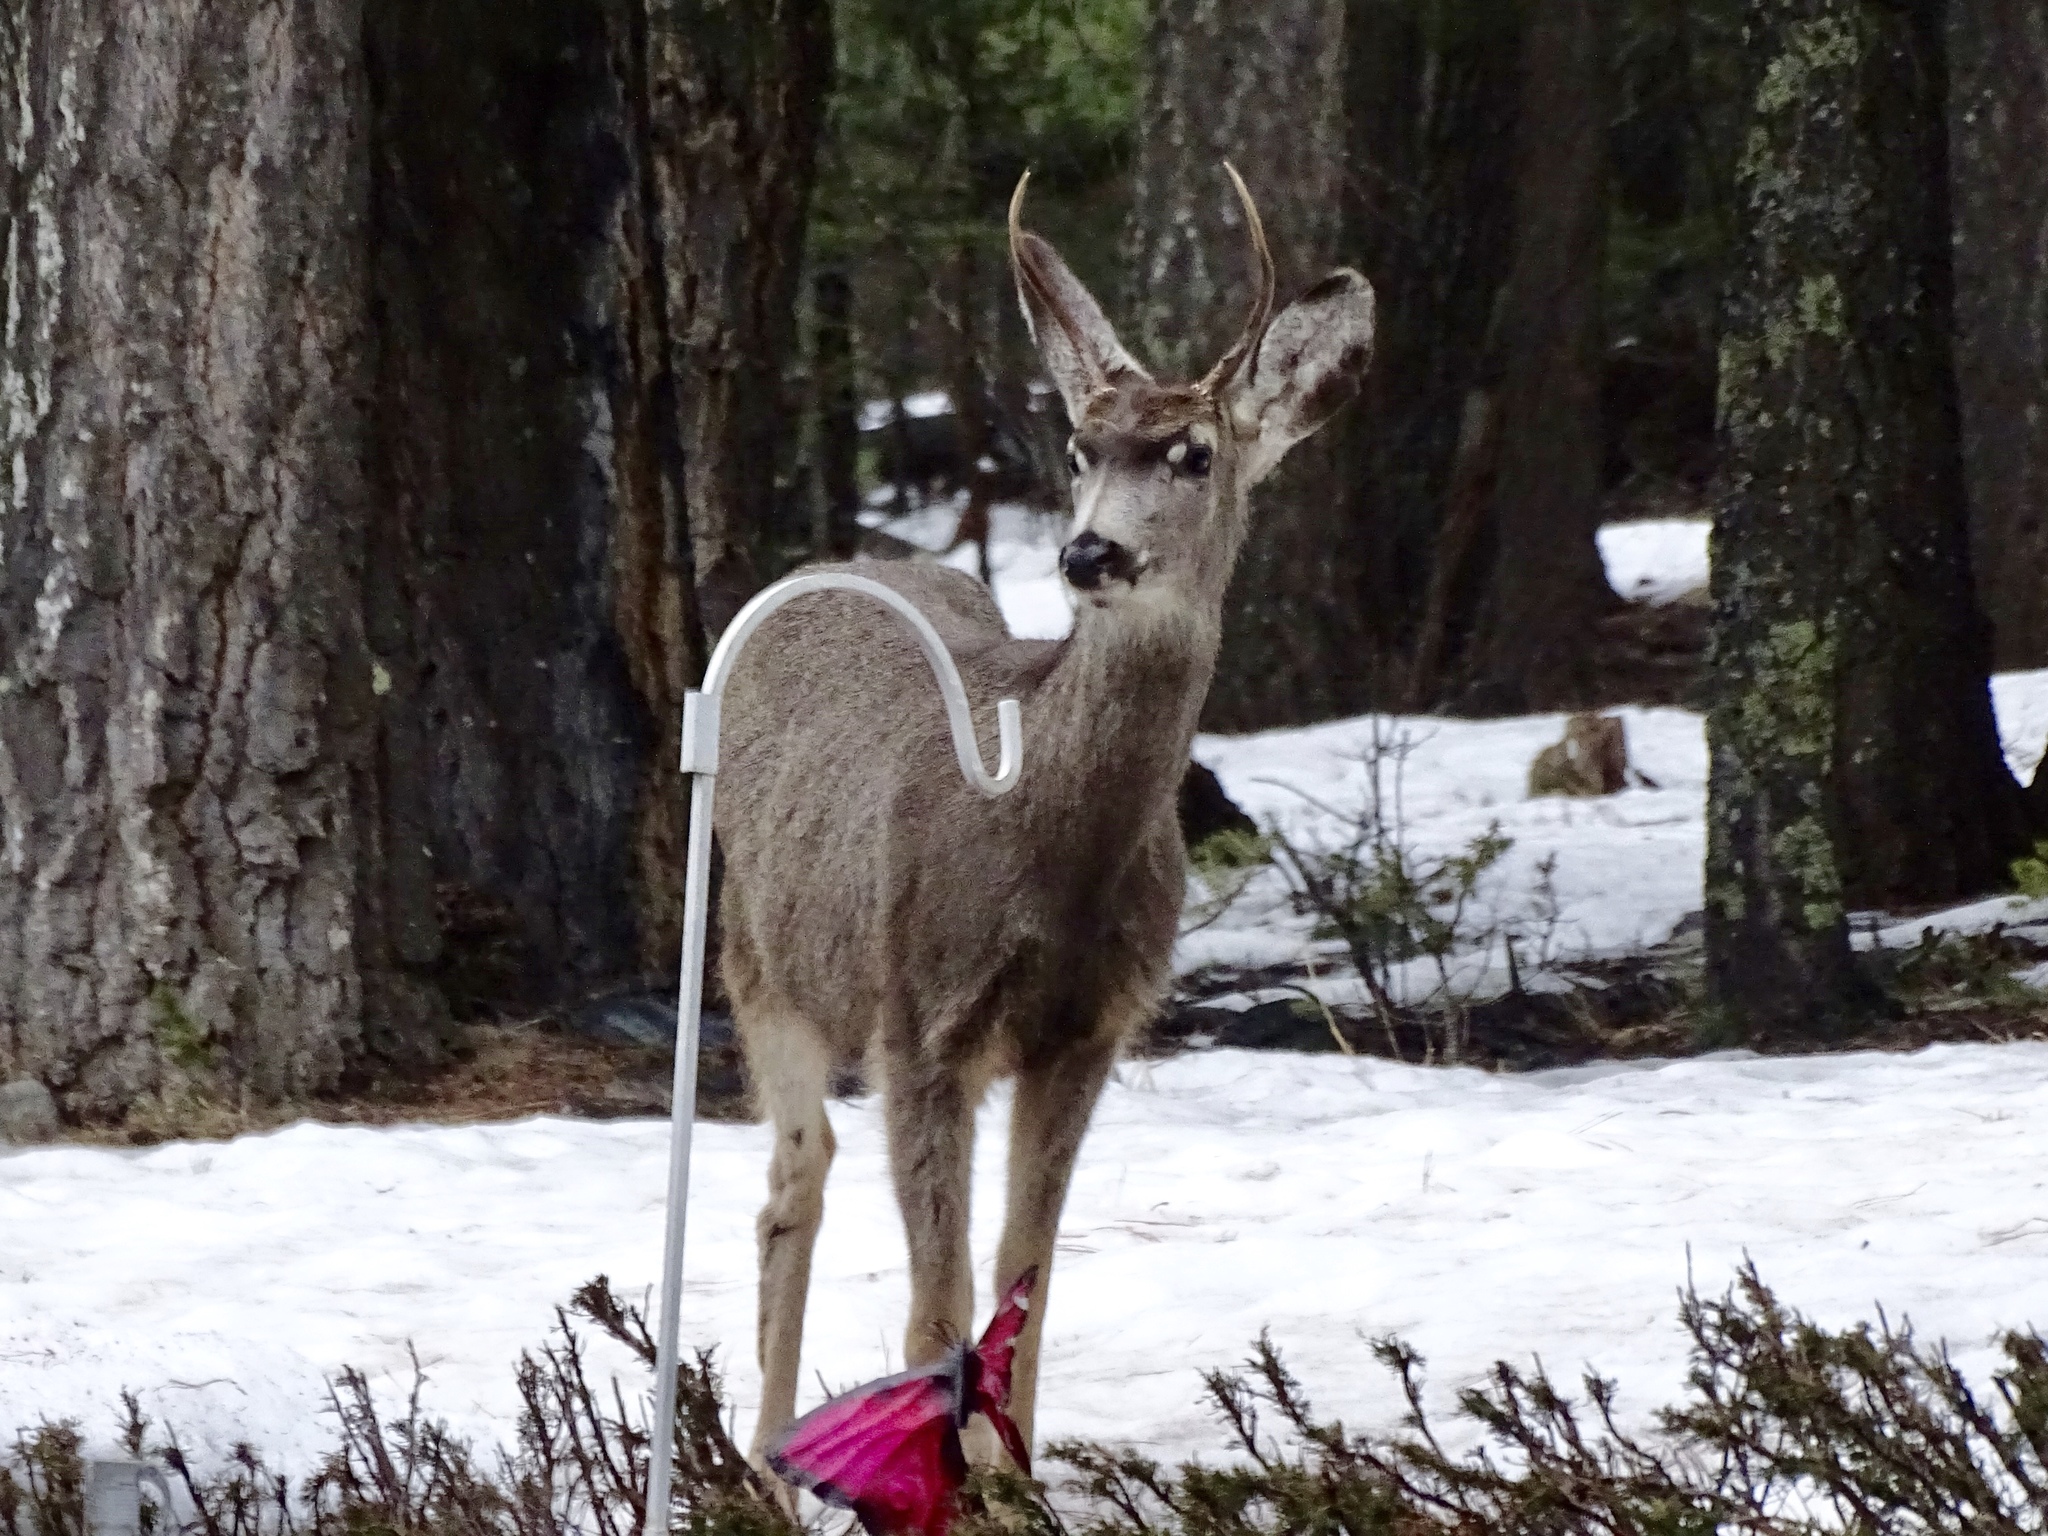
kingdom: Animalia
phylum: Chordata
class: Mammalia
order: Artiodactyla
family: Cervidae
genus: Odocoileus
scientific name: Odocoileus hemionus
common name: Mule deer
